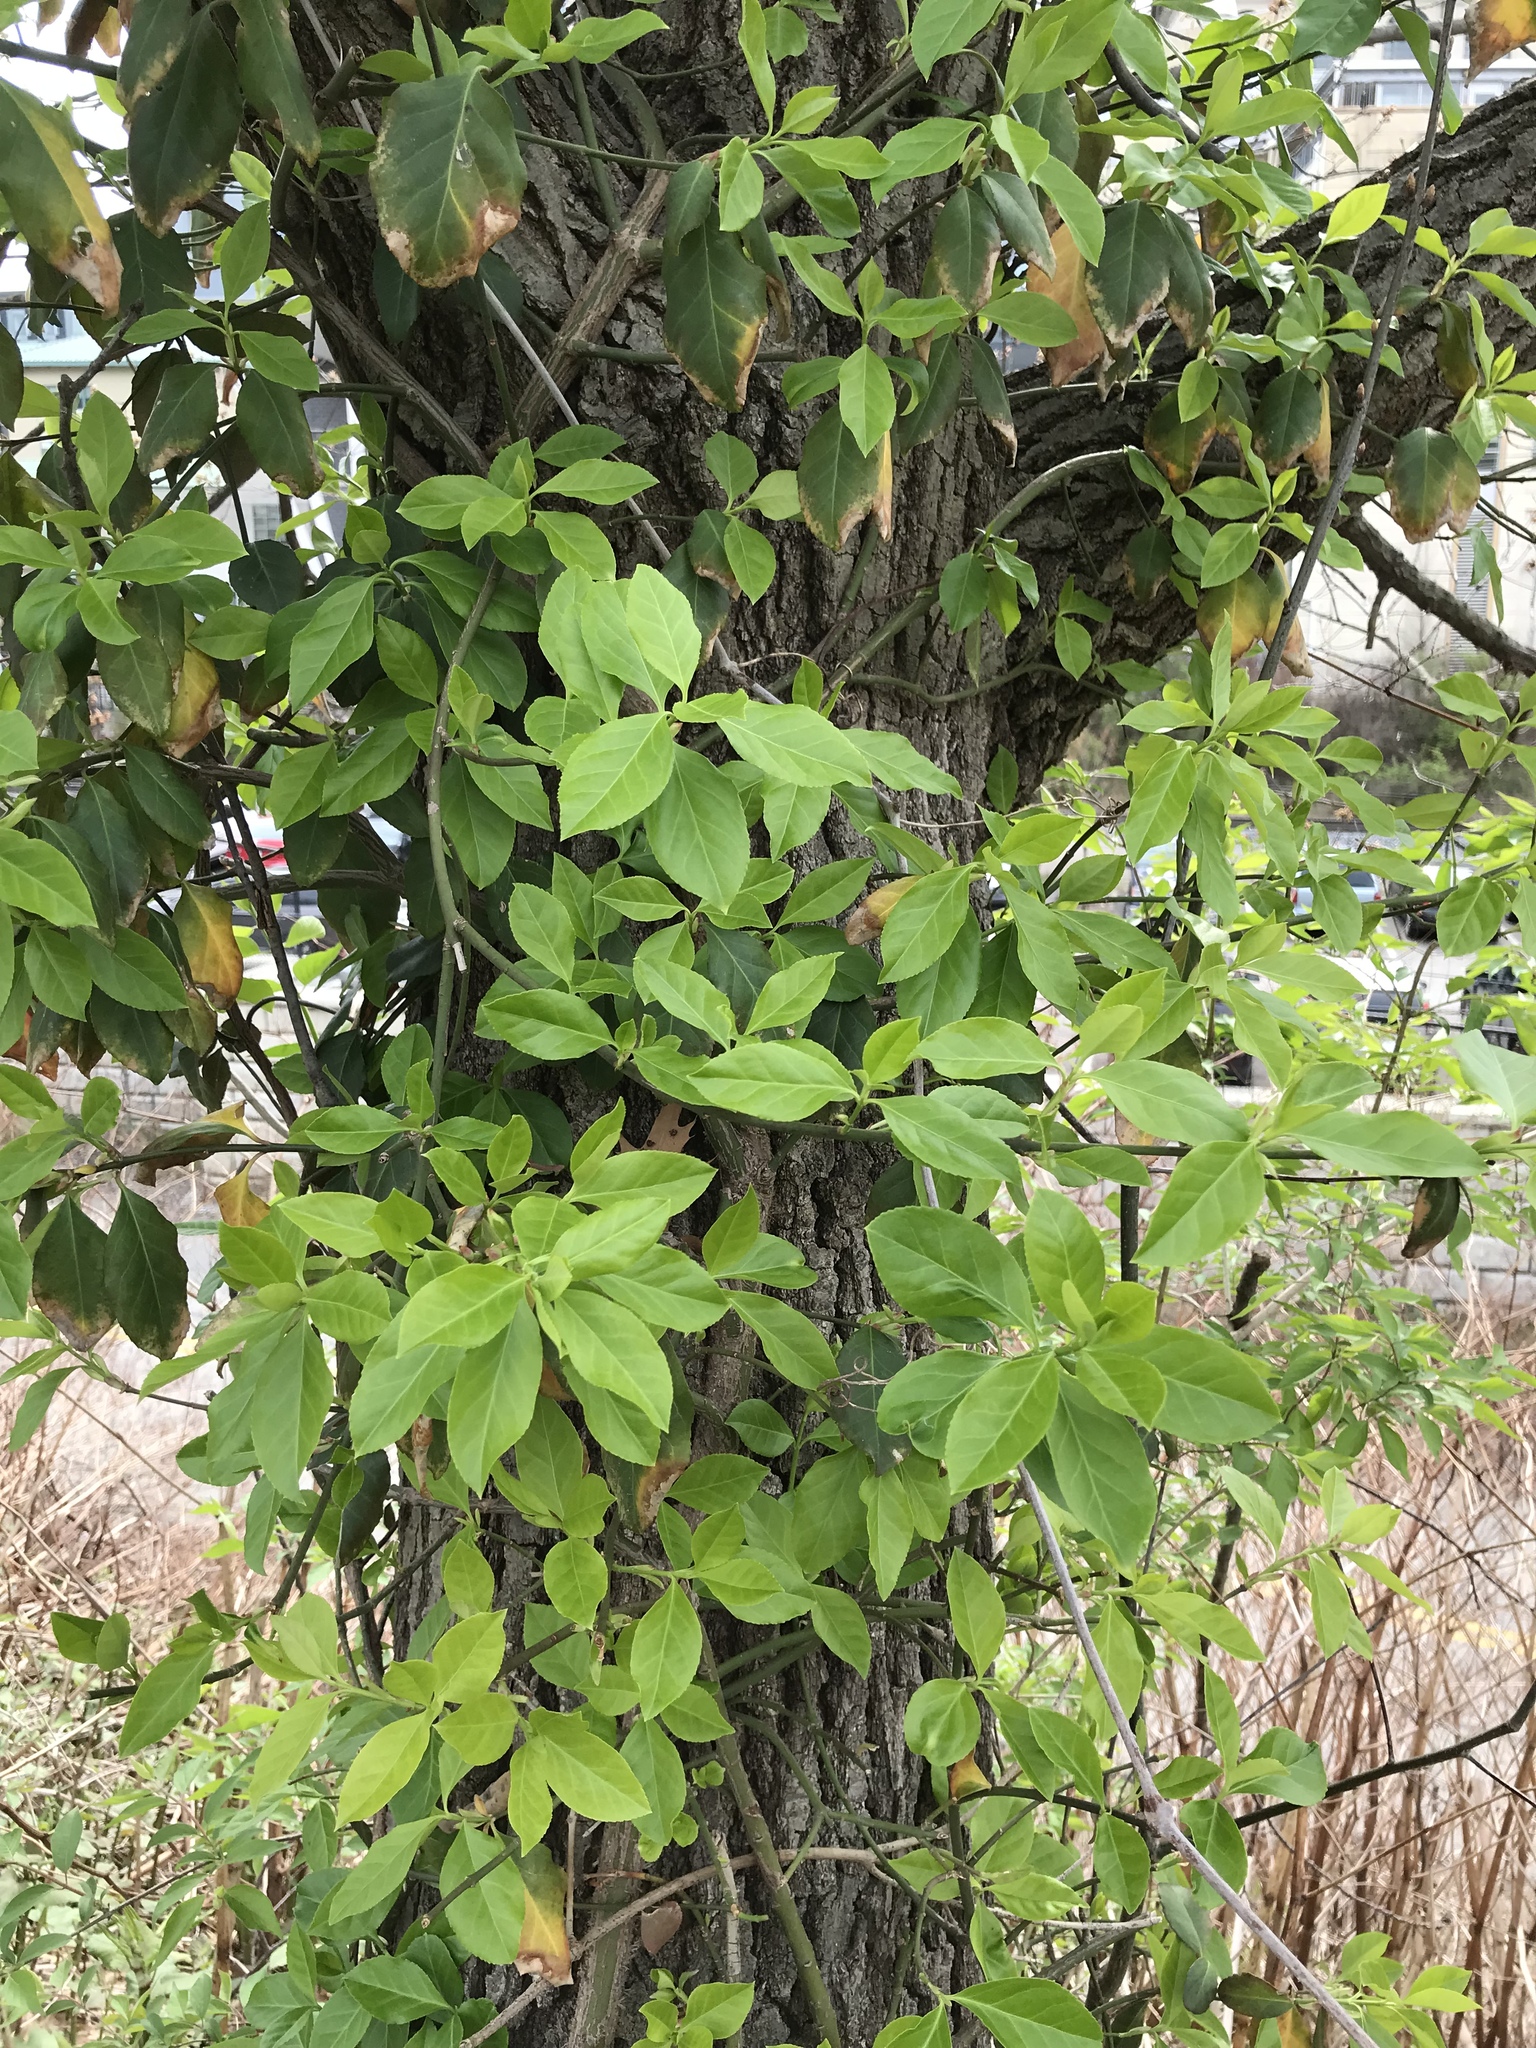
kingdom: Plantae
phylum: Tracheophyta
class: Magnoliopsida
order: Celastrales
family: Celastraceae
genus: Euonymus
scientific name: Euonymus fortunei
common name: Climbing euonymus
